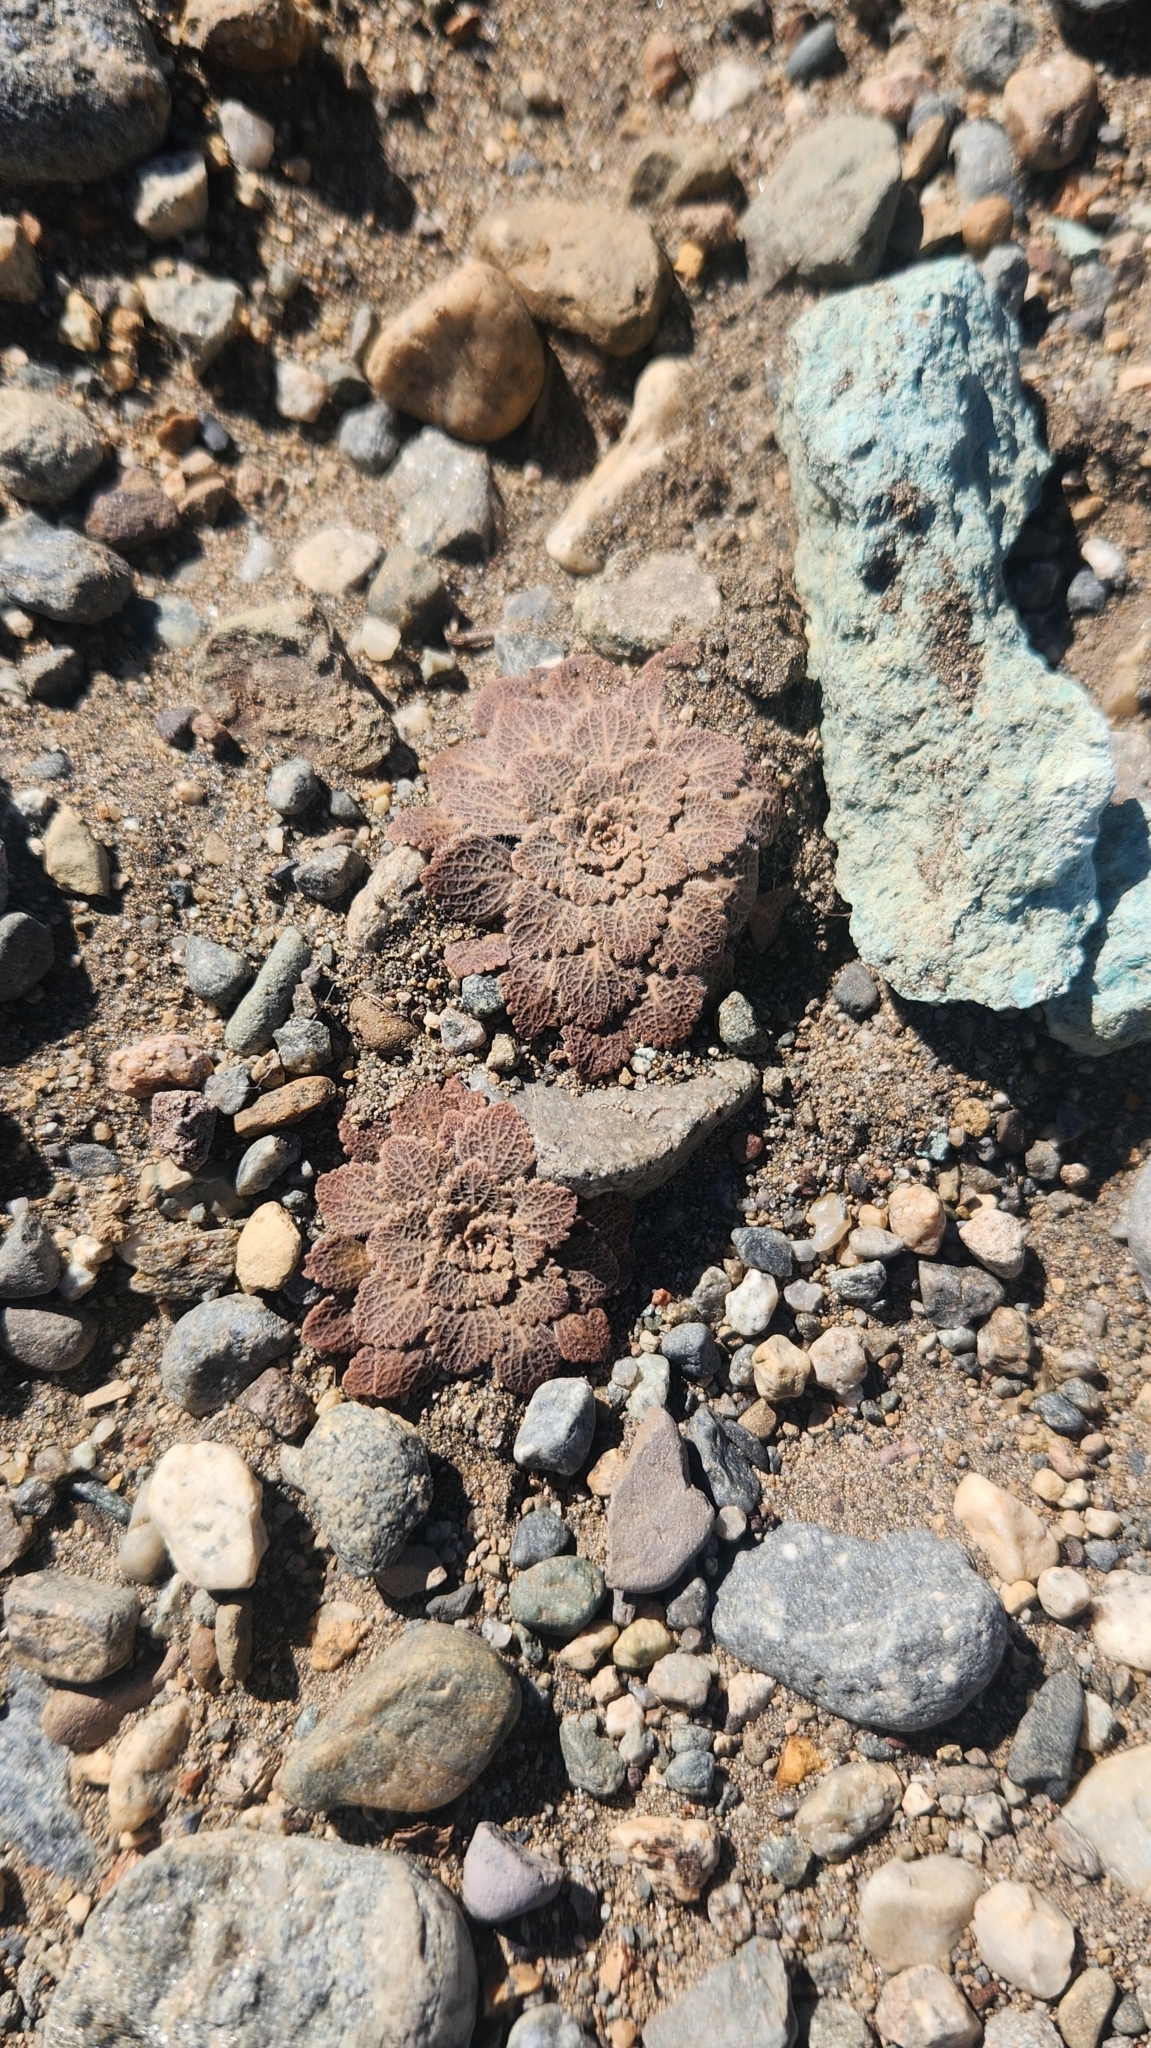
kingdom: Plantae
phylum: Tracheophyta
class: Magnoliopsida
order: Malpighiales
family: Violaceae
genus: Viola
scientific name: Viola volcanica
